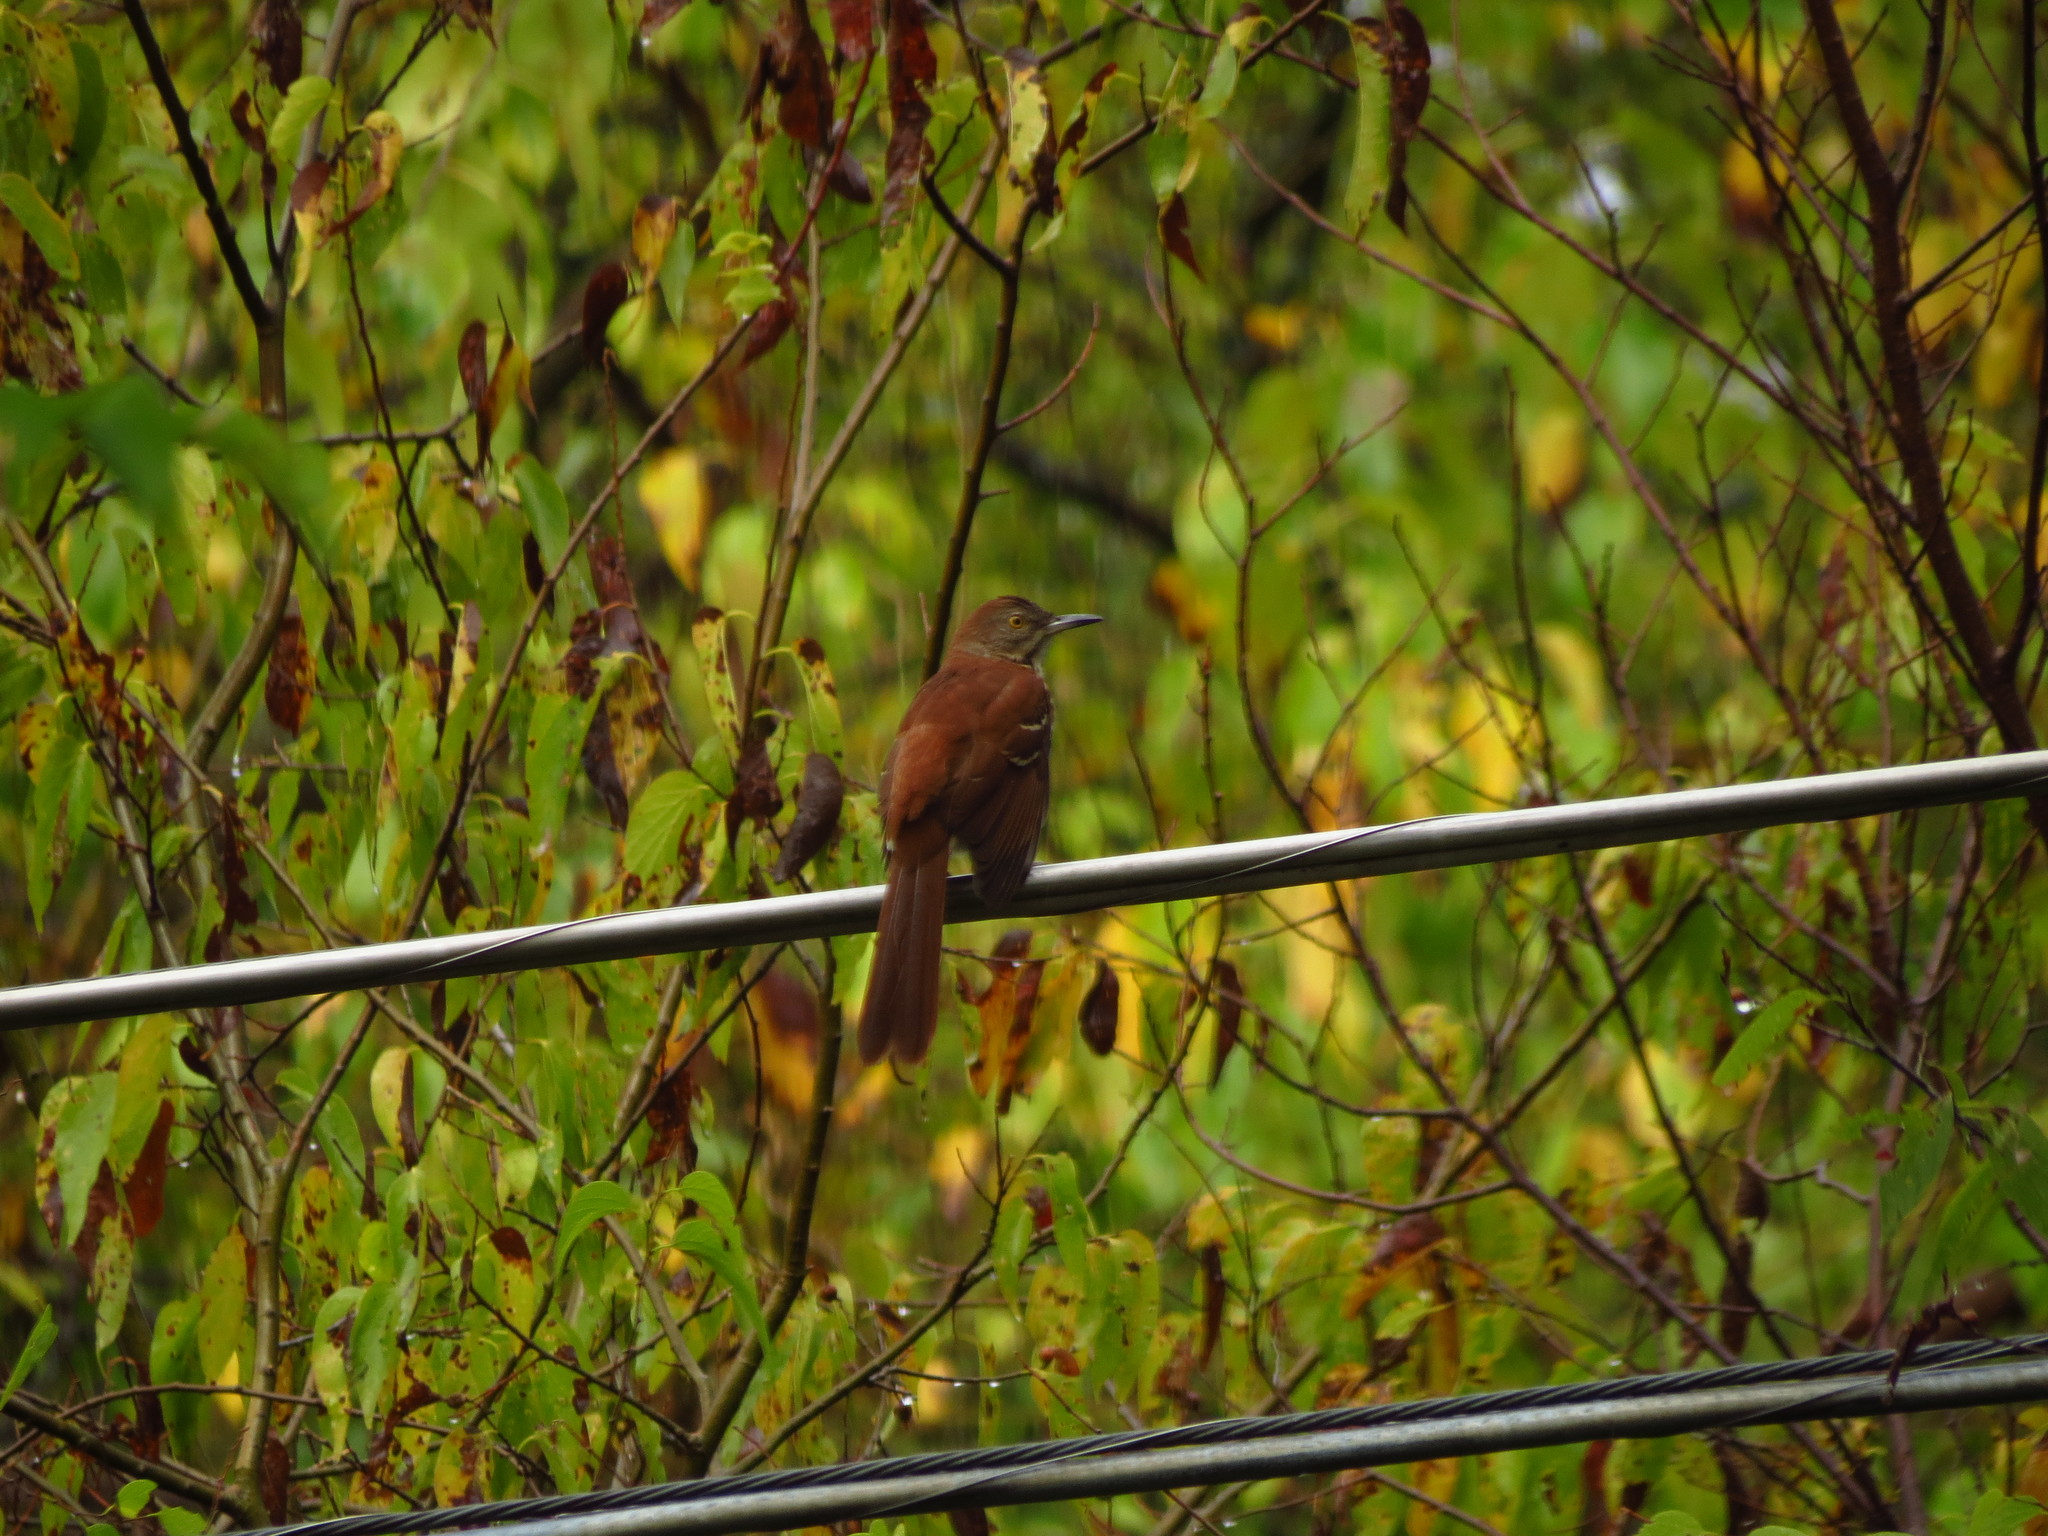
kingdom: Animalia
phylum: Chordata
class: Aves
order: Passeriformes
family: Mimidae
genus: Toxostoma
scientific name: Toxostoma rufum
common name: Brown thrasher
